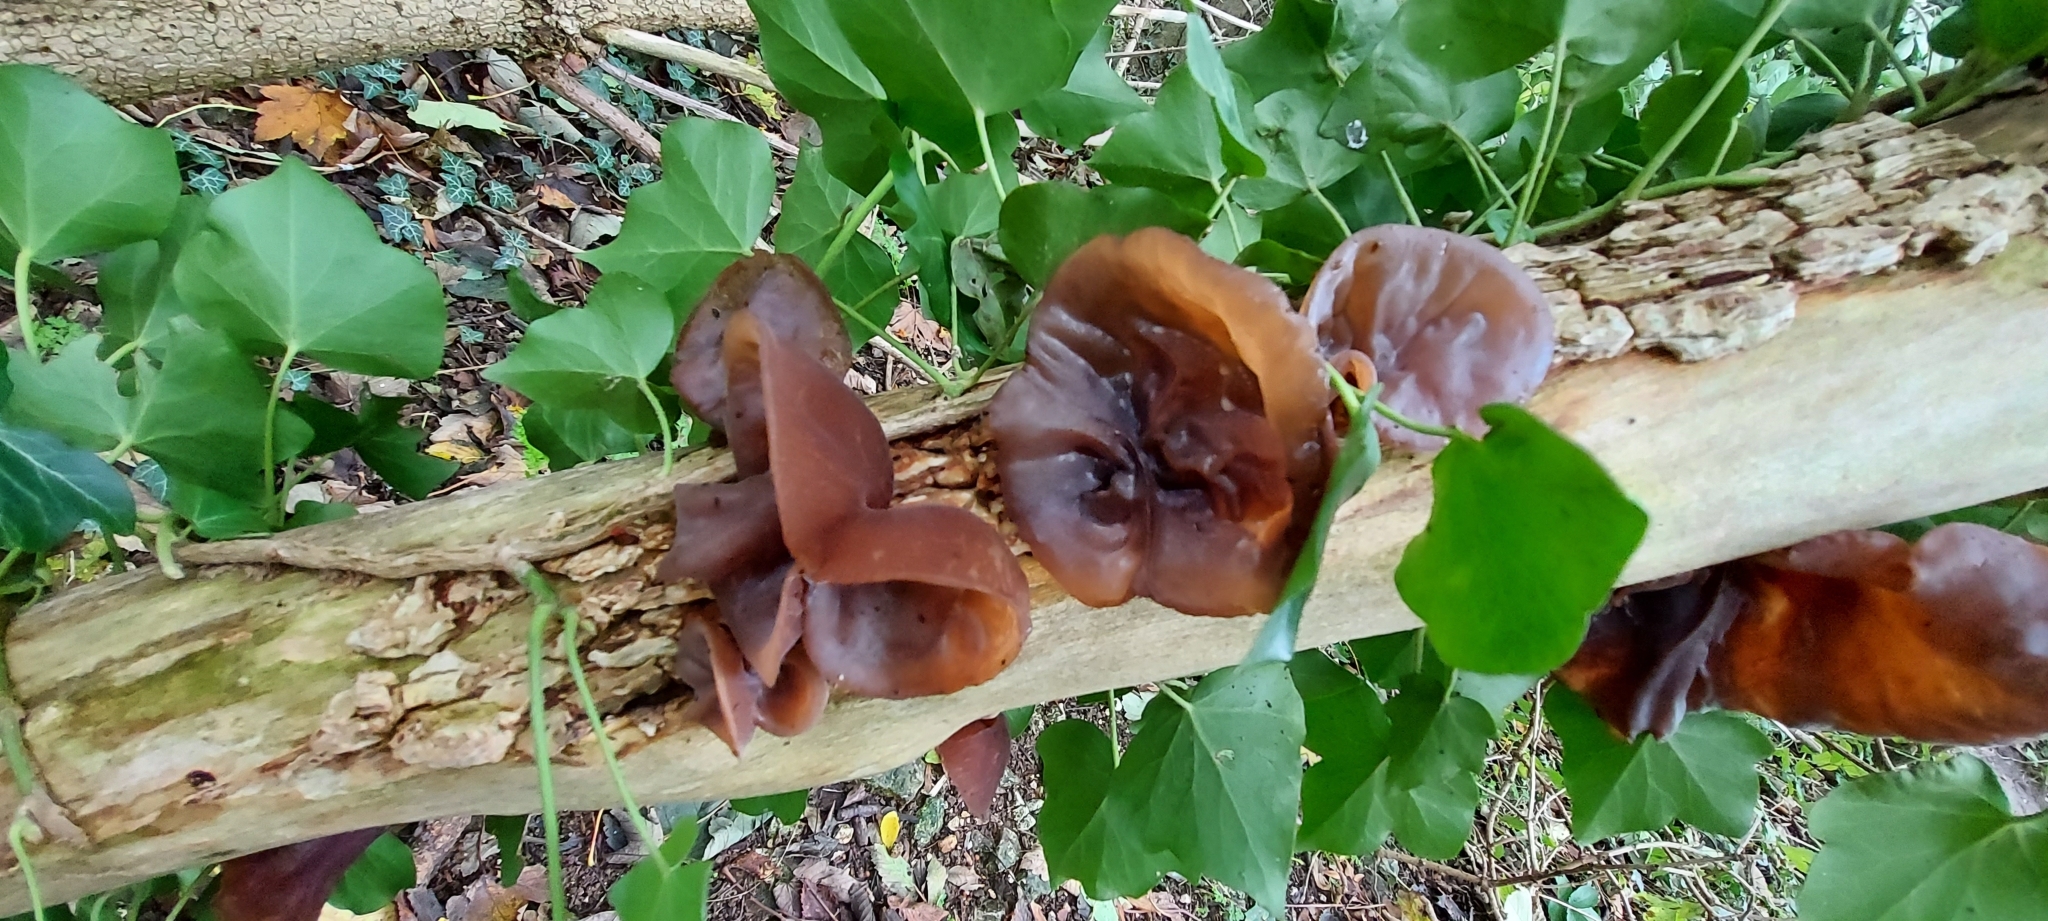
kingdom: Fungi
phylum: Basidiomycota
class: Agaricomycetes
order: Auriculariales
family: Auriculariaceae
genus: Auricularia
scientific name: Auricularia auricula-judae
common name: Jelly ear
